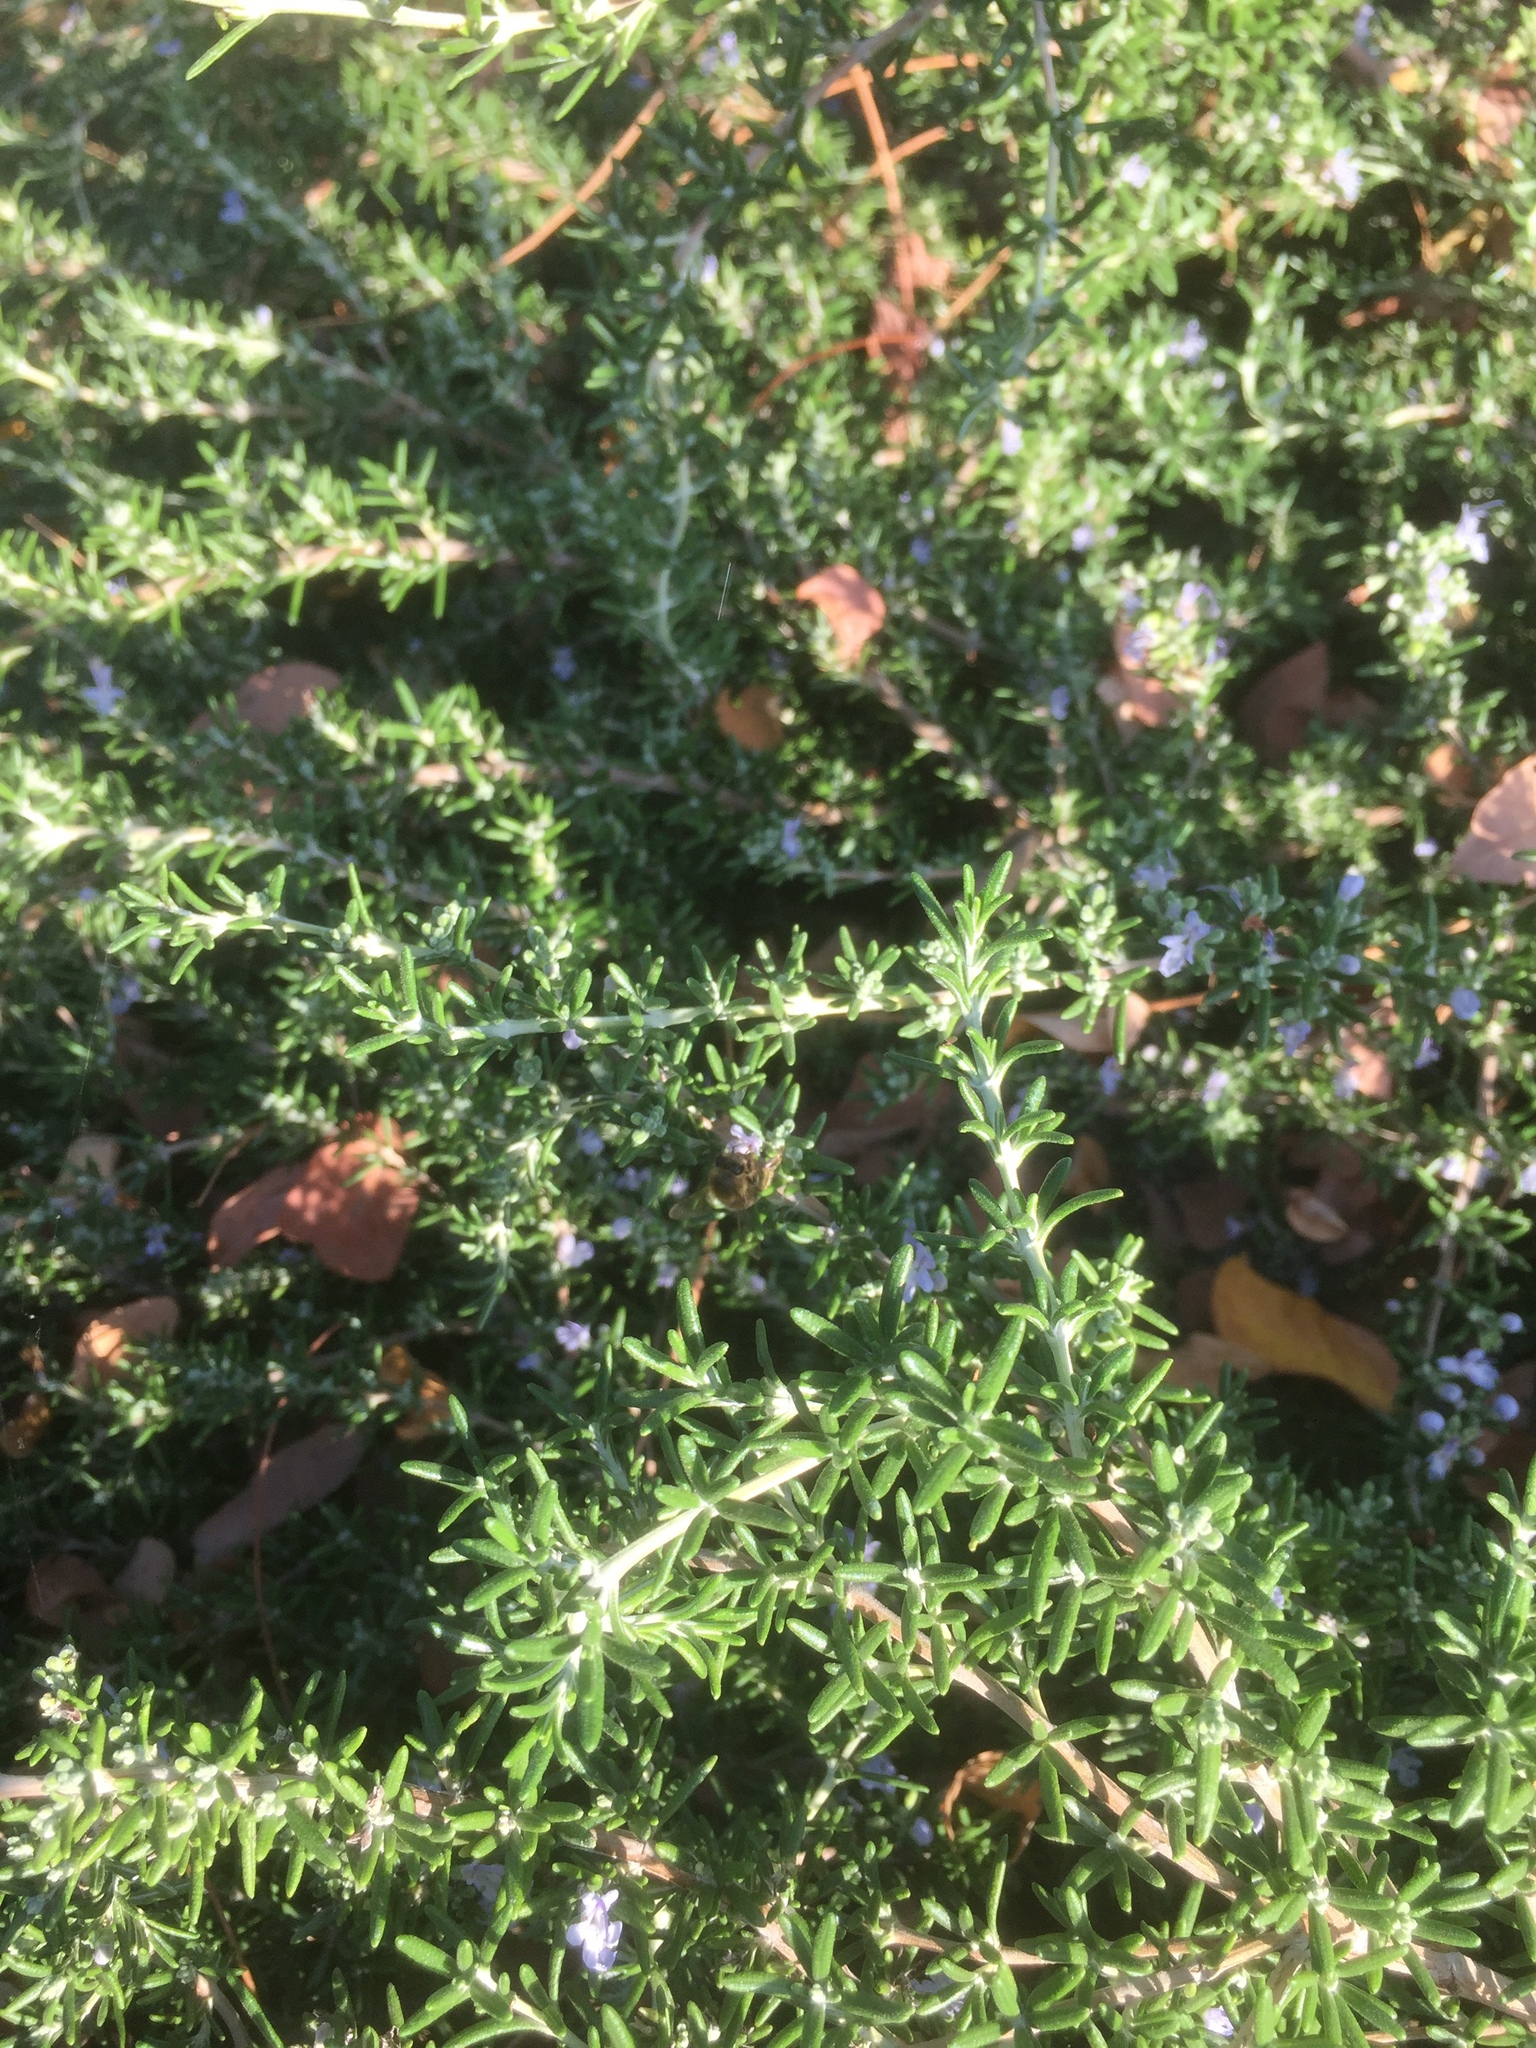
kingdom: Animalia
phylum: Arthropoda
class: Insecta
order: Hymenoptera
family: Apidae
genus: Apis
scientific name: Apis mellifera
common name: Honey bee
